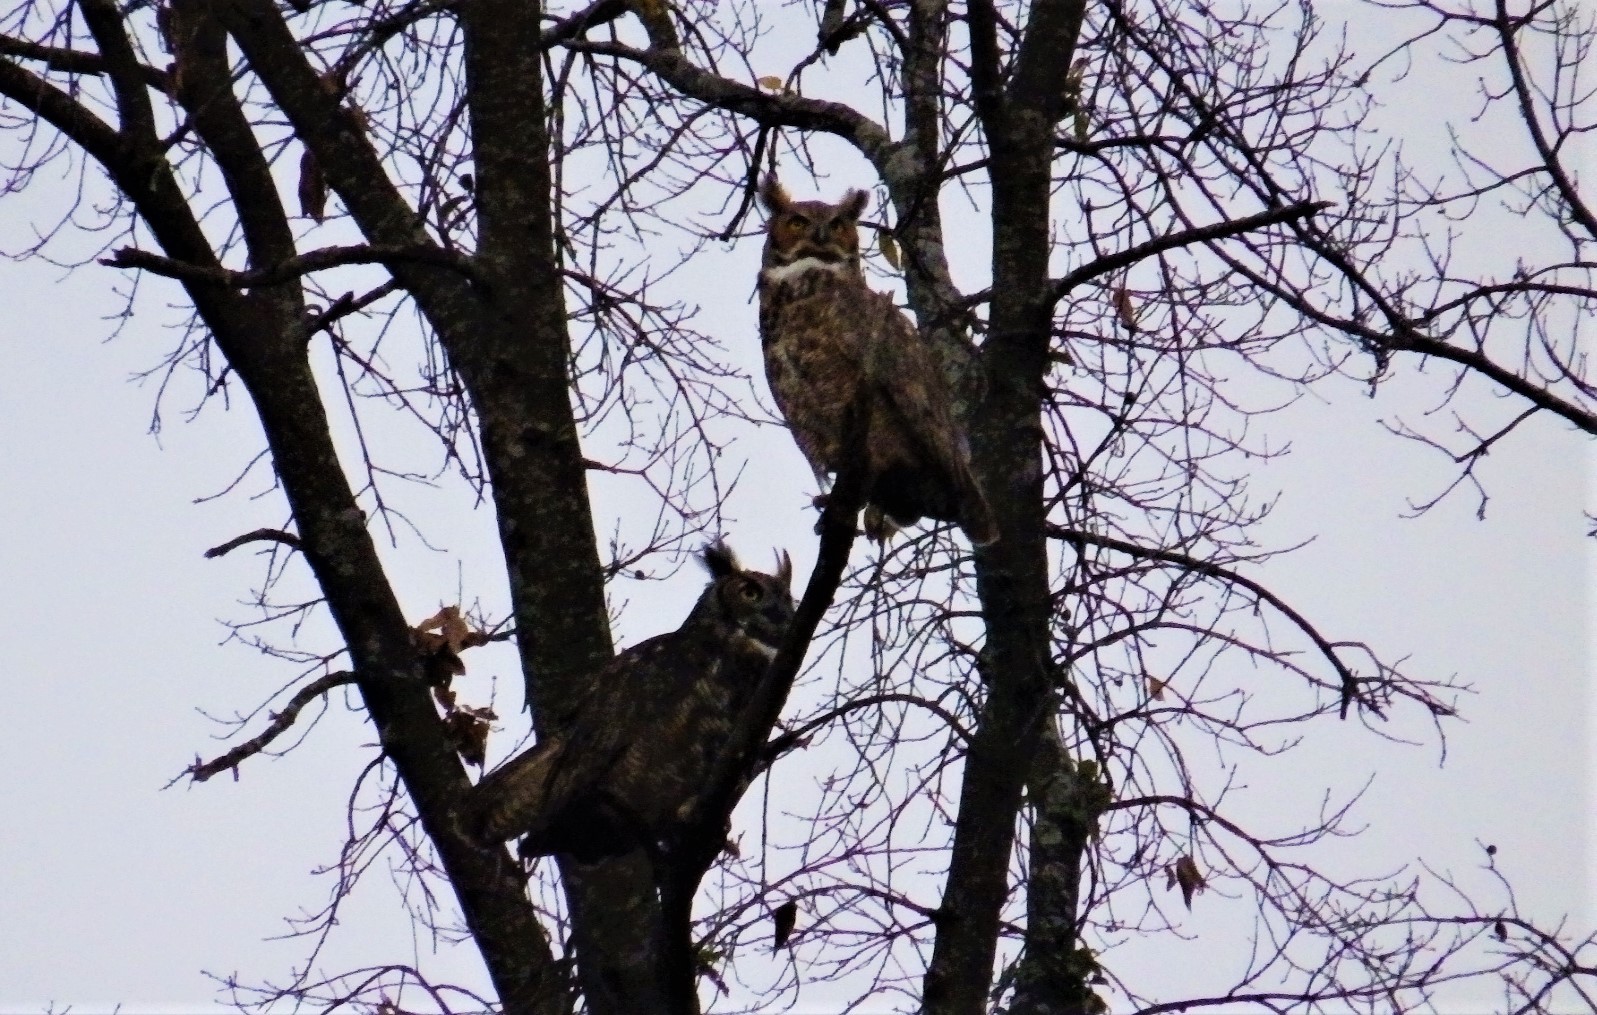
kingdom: Animalia
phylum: Chordata
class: Aves
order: Strigiformes
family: Strigidae
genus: Bubo
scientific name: Bubo virginianus
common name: Great horned owl
